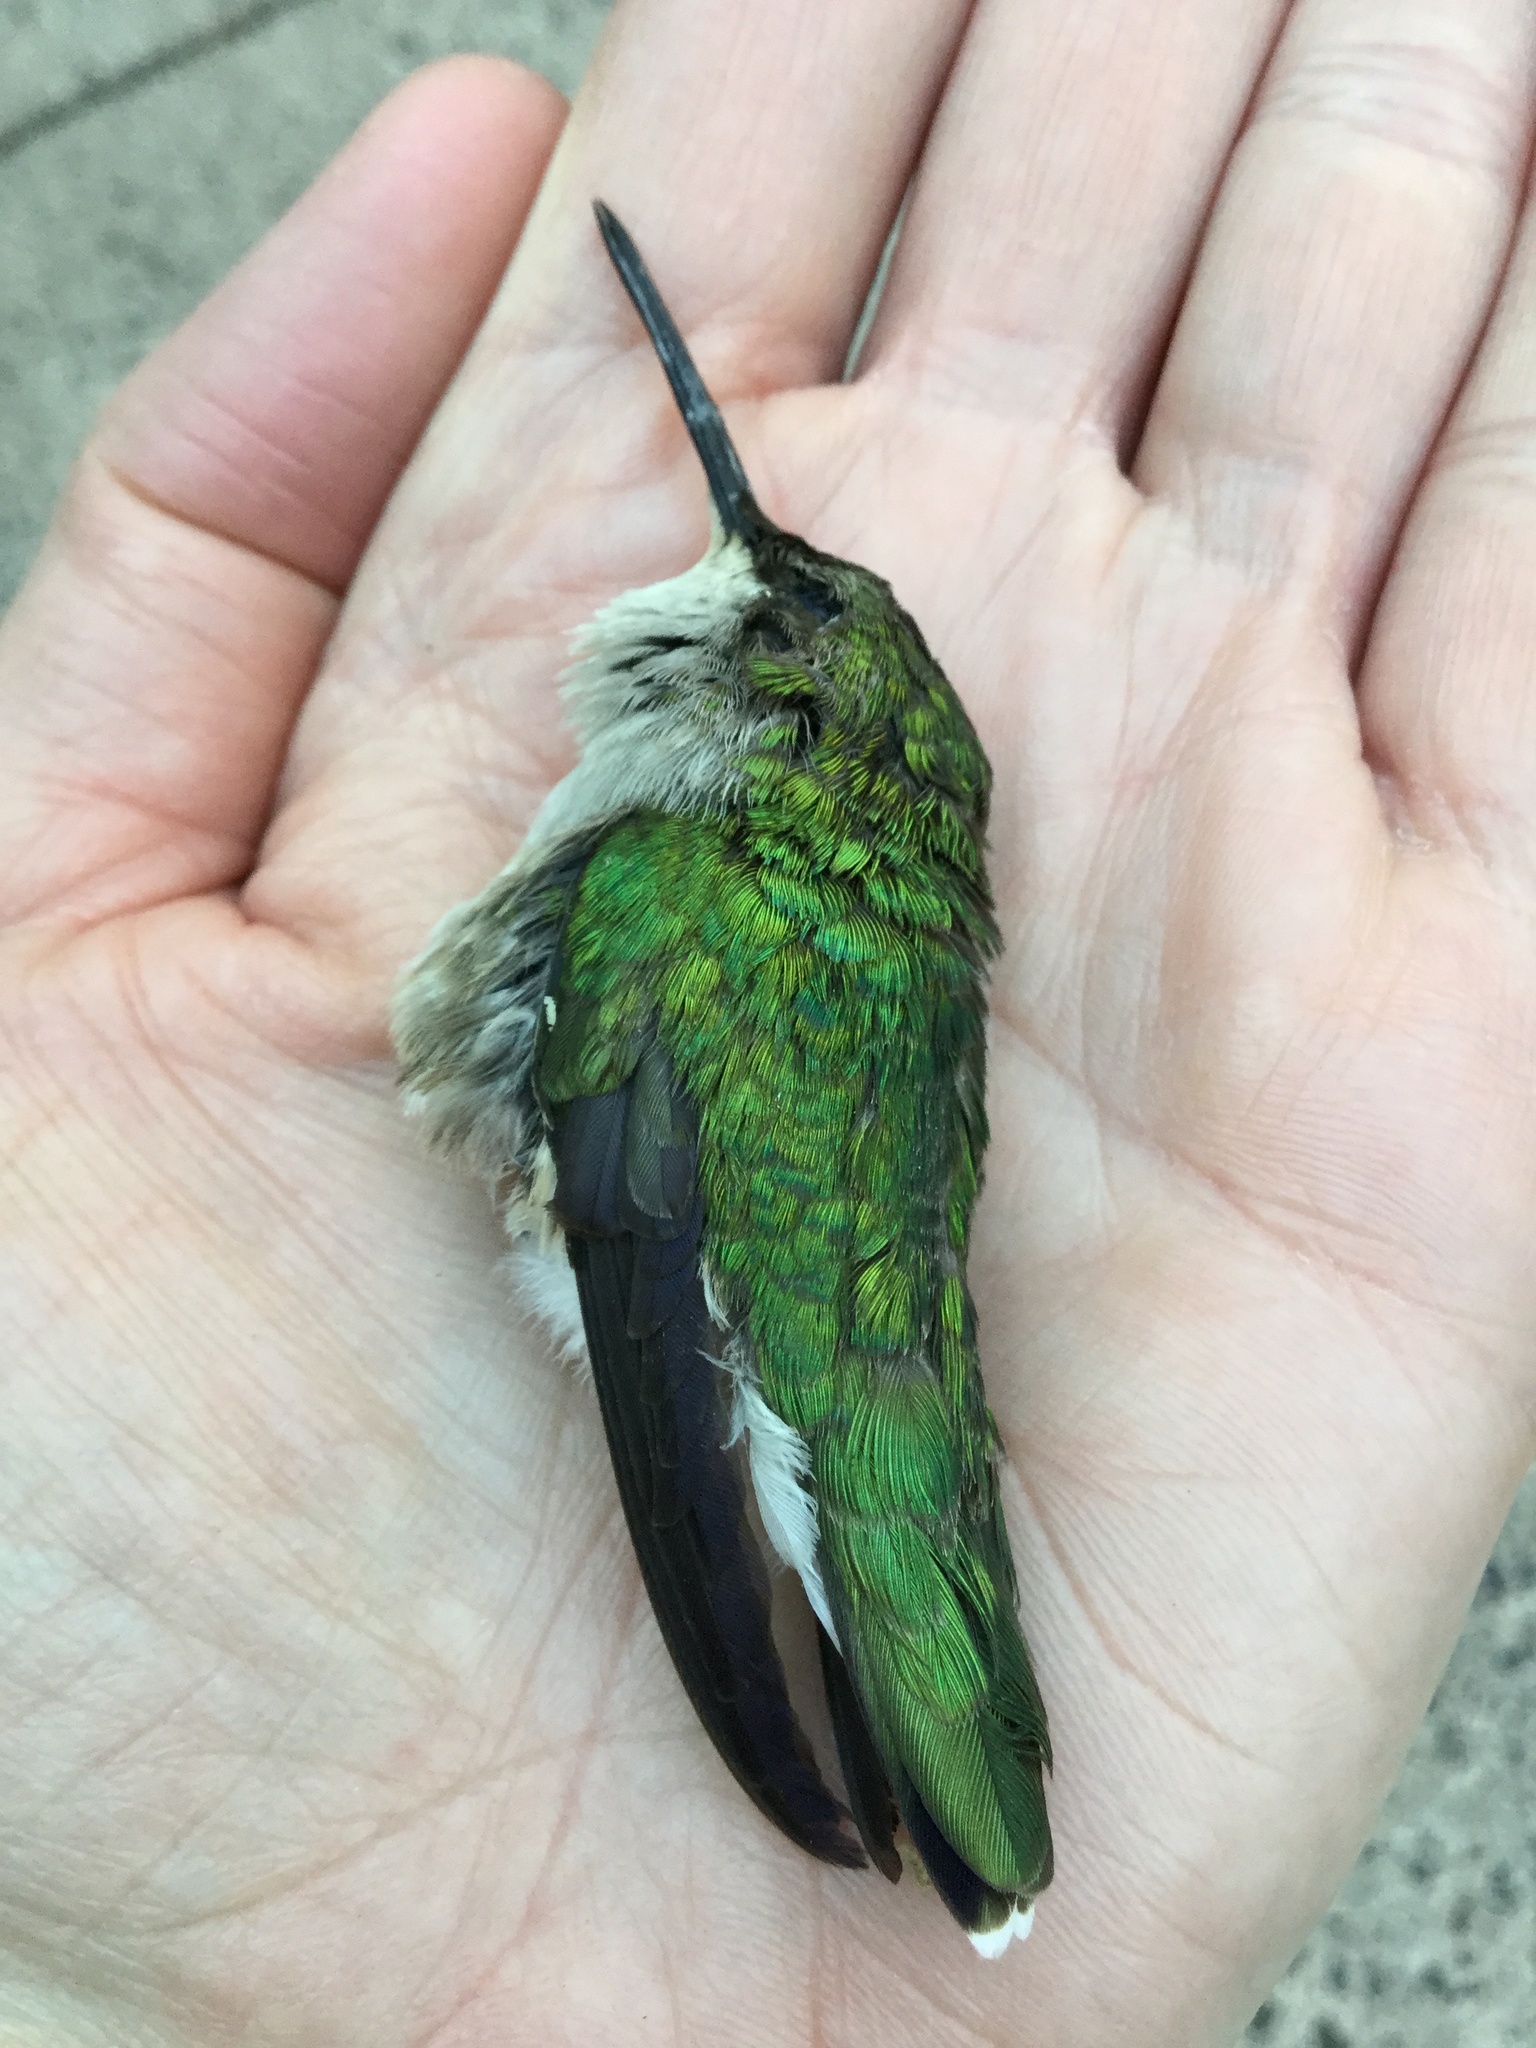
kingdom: Animalia
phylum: Chordata
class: Aves
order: Apodiformes
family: Trochilidae
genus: Archilochus
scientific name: Archilochus colubris
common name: Ruby-throated hummingbird
